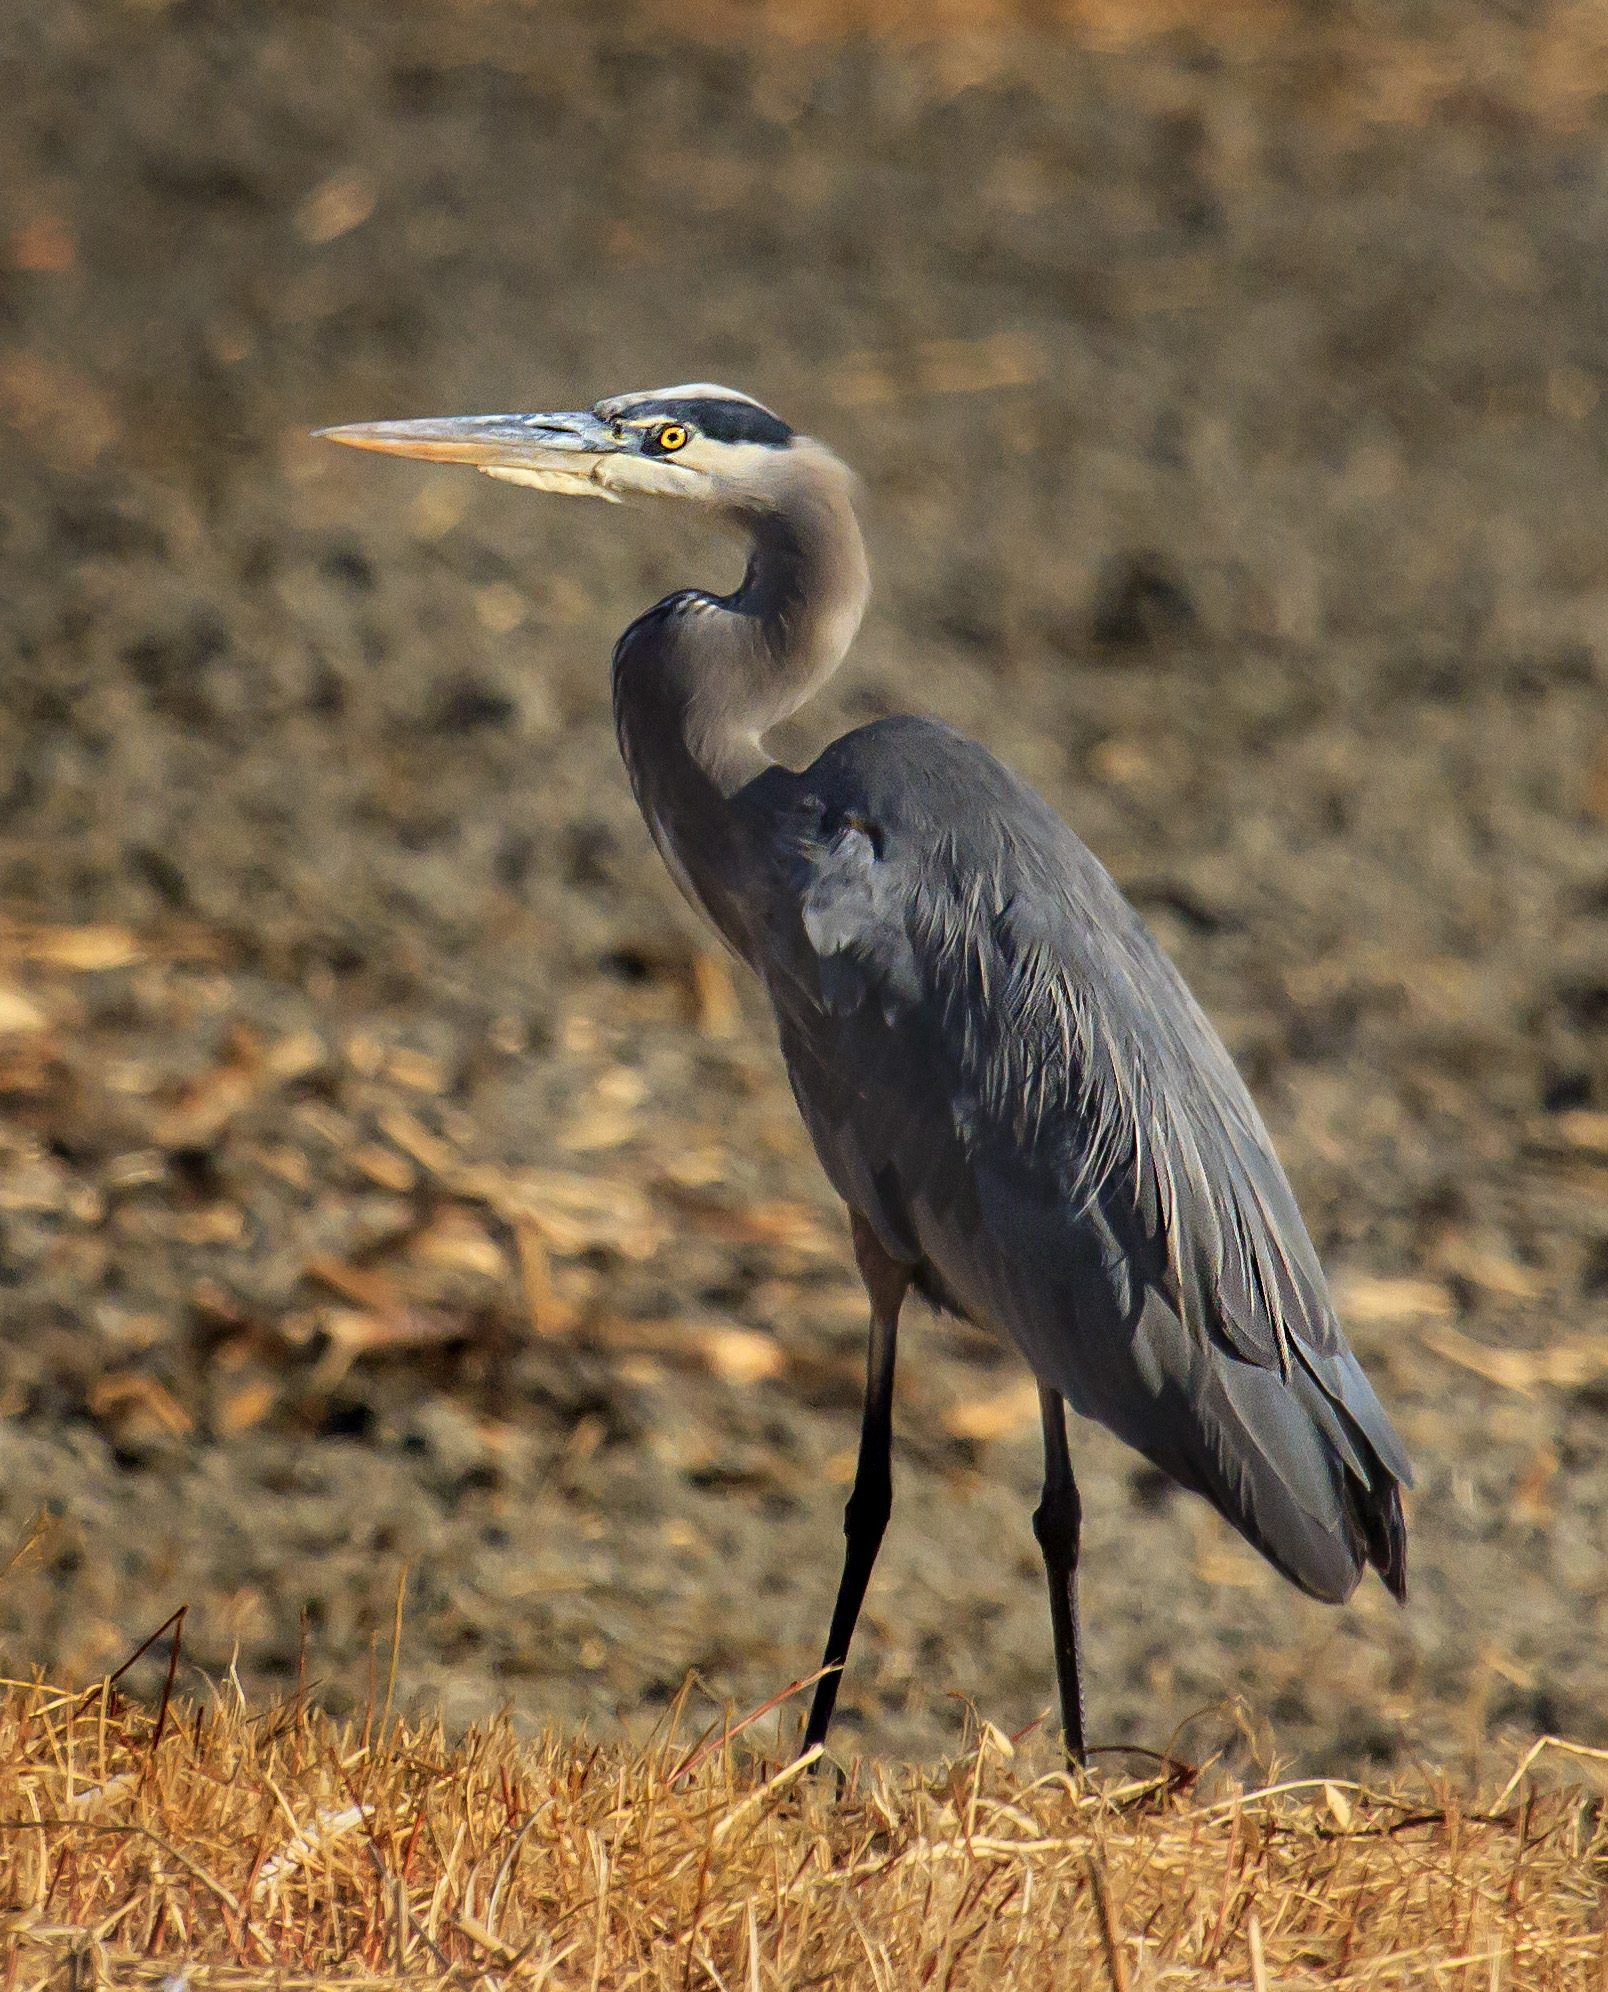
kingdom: Animalia
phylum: Chordata
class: Aves
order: Pelecaniformes
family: Ardeidae
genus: Ardea
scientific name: Ardea herodias
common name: Great blue heron
